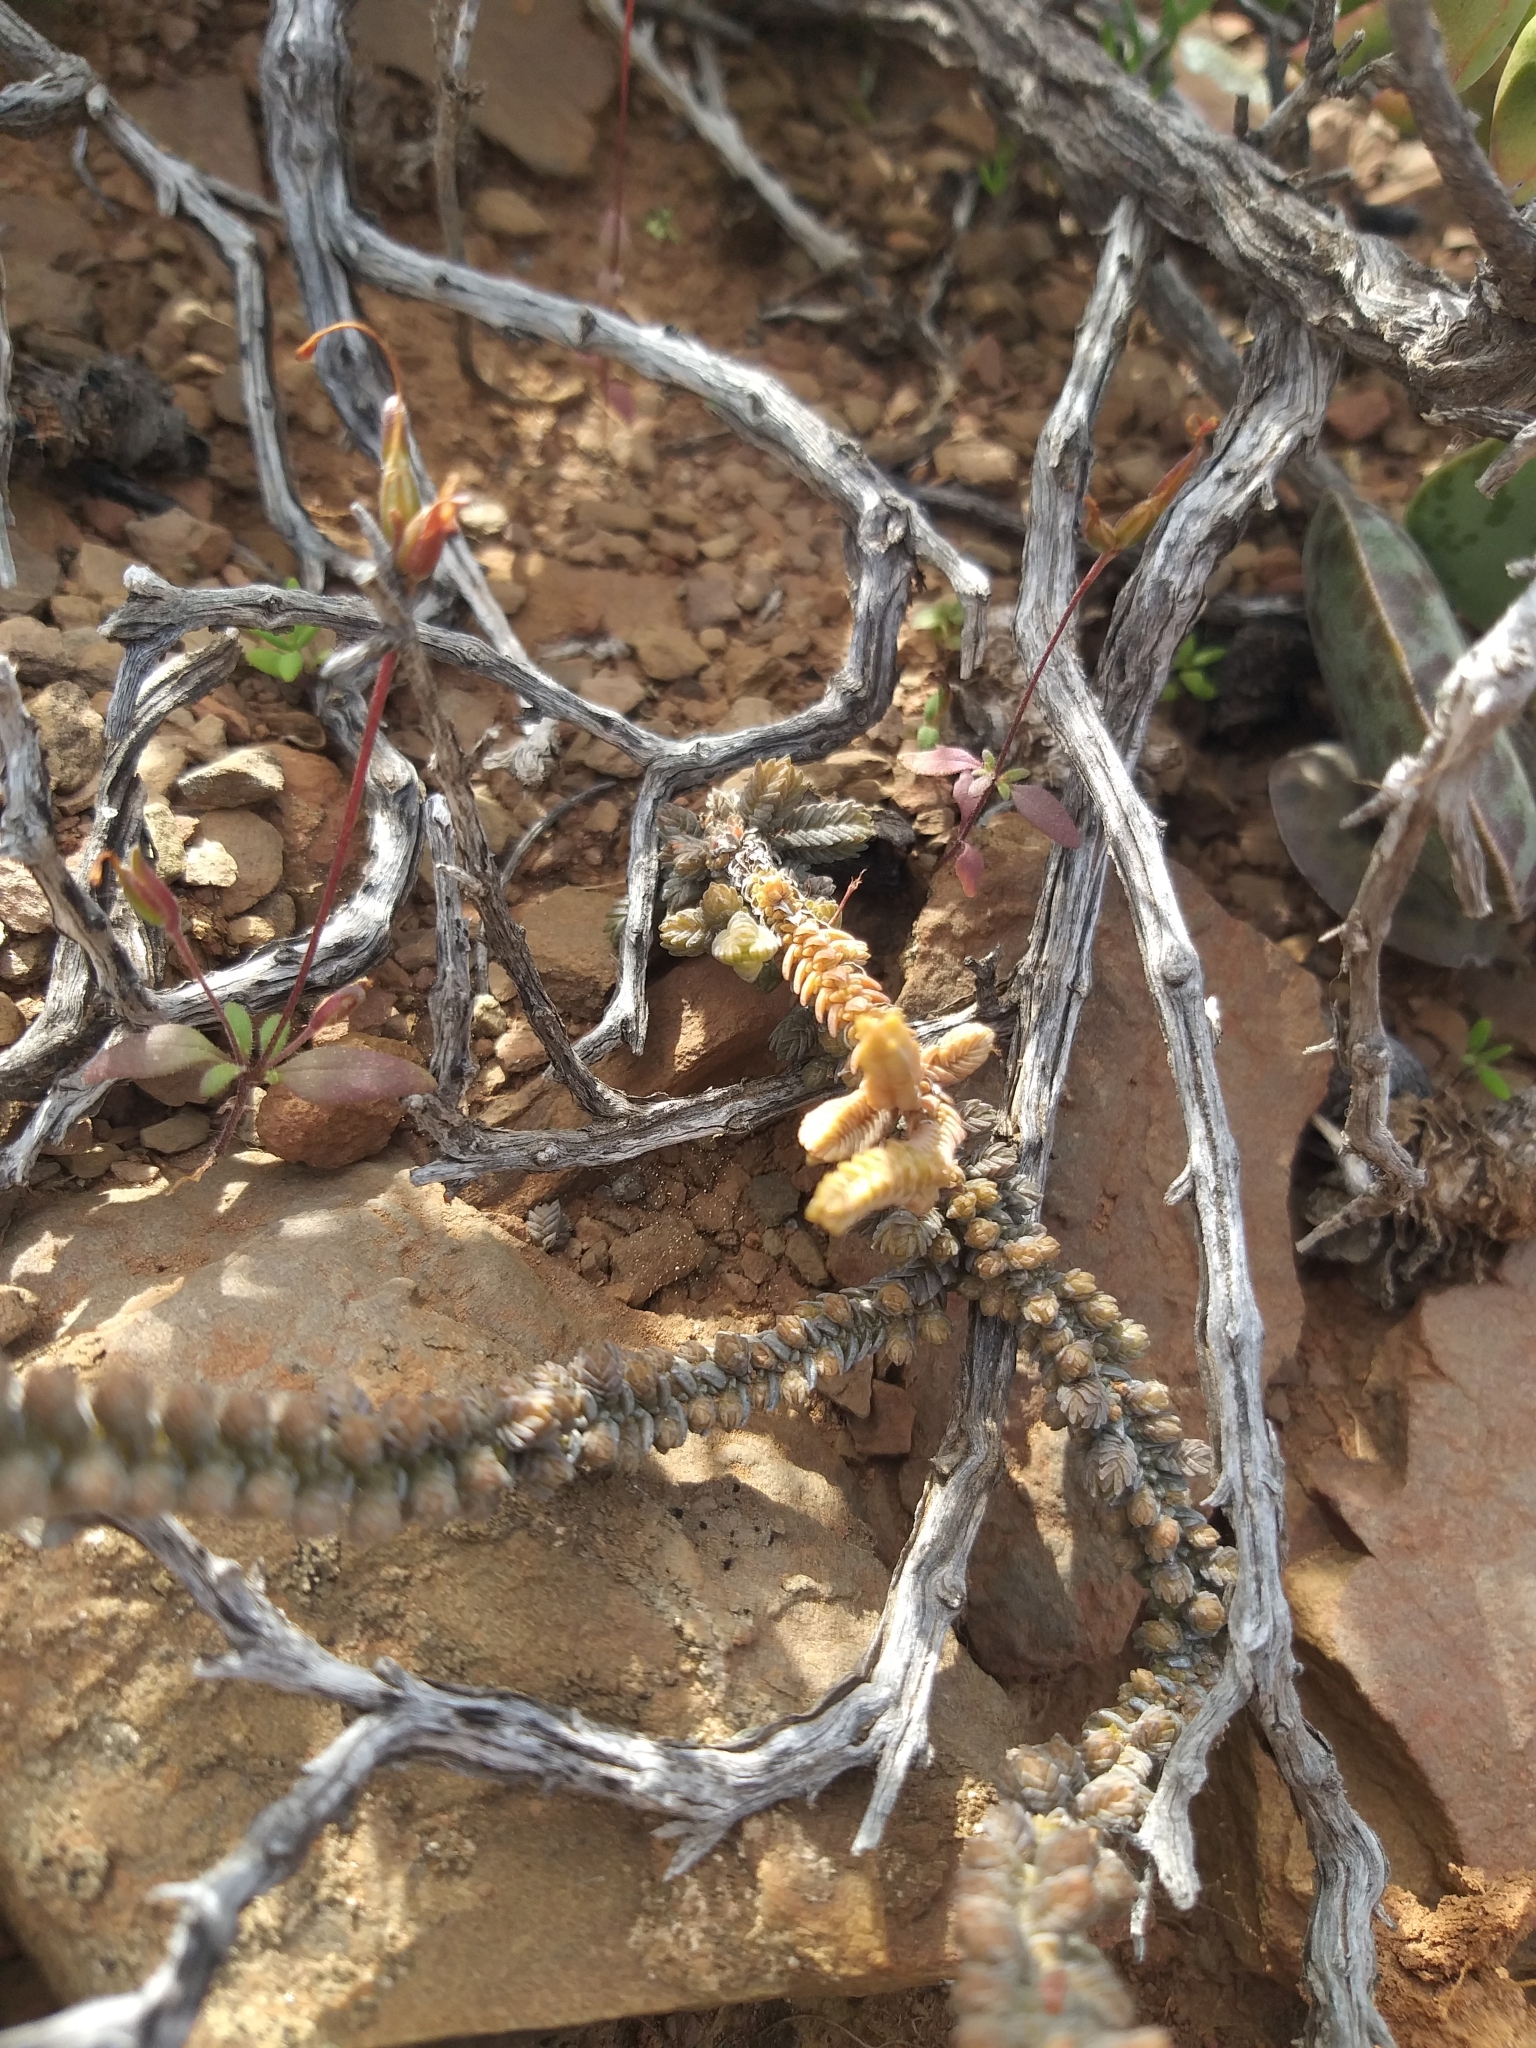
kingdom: Plantae
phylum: Tracheophyta
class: Magnoliopsida
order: Saxifragales
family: Crassulaceae
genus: Crassula
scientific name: Crassula muscosa
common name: Toy-cypress
